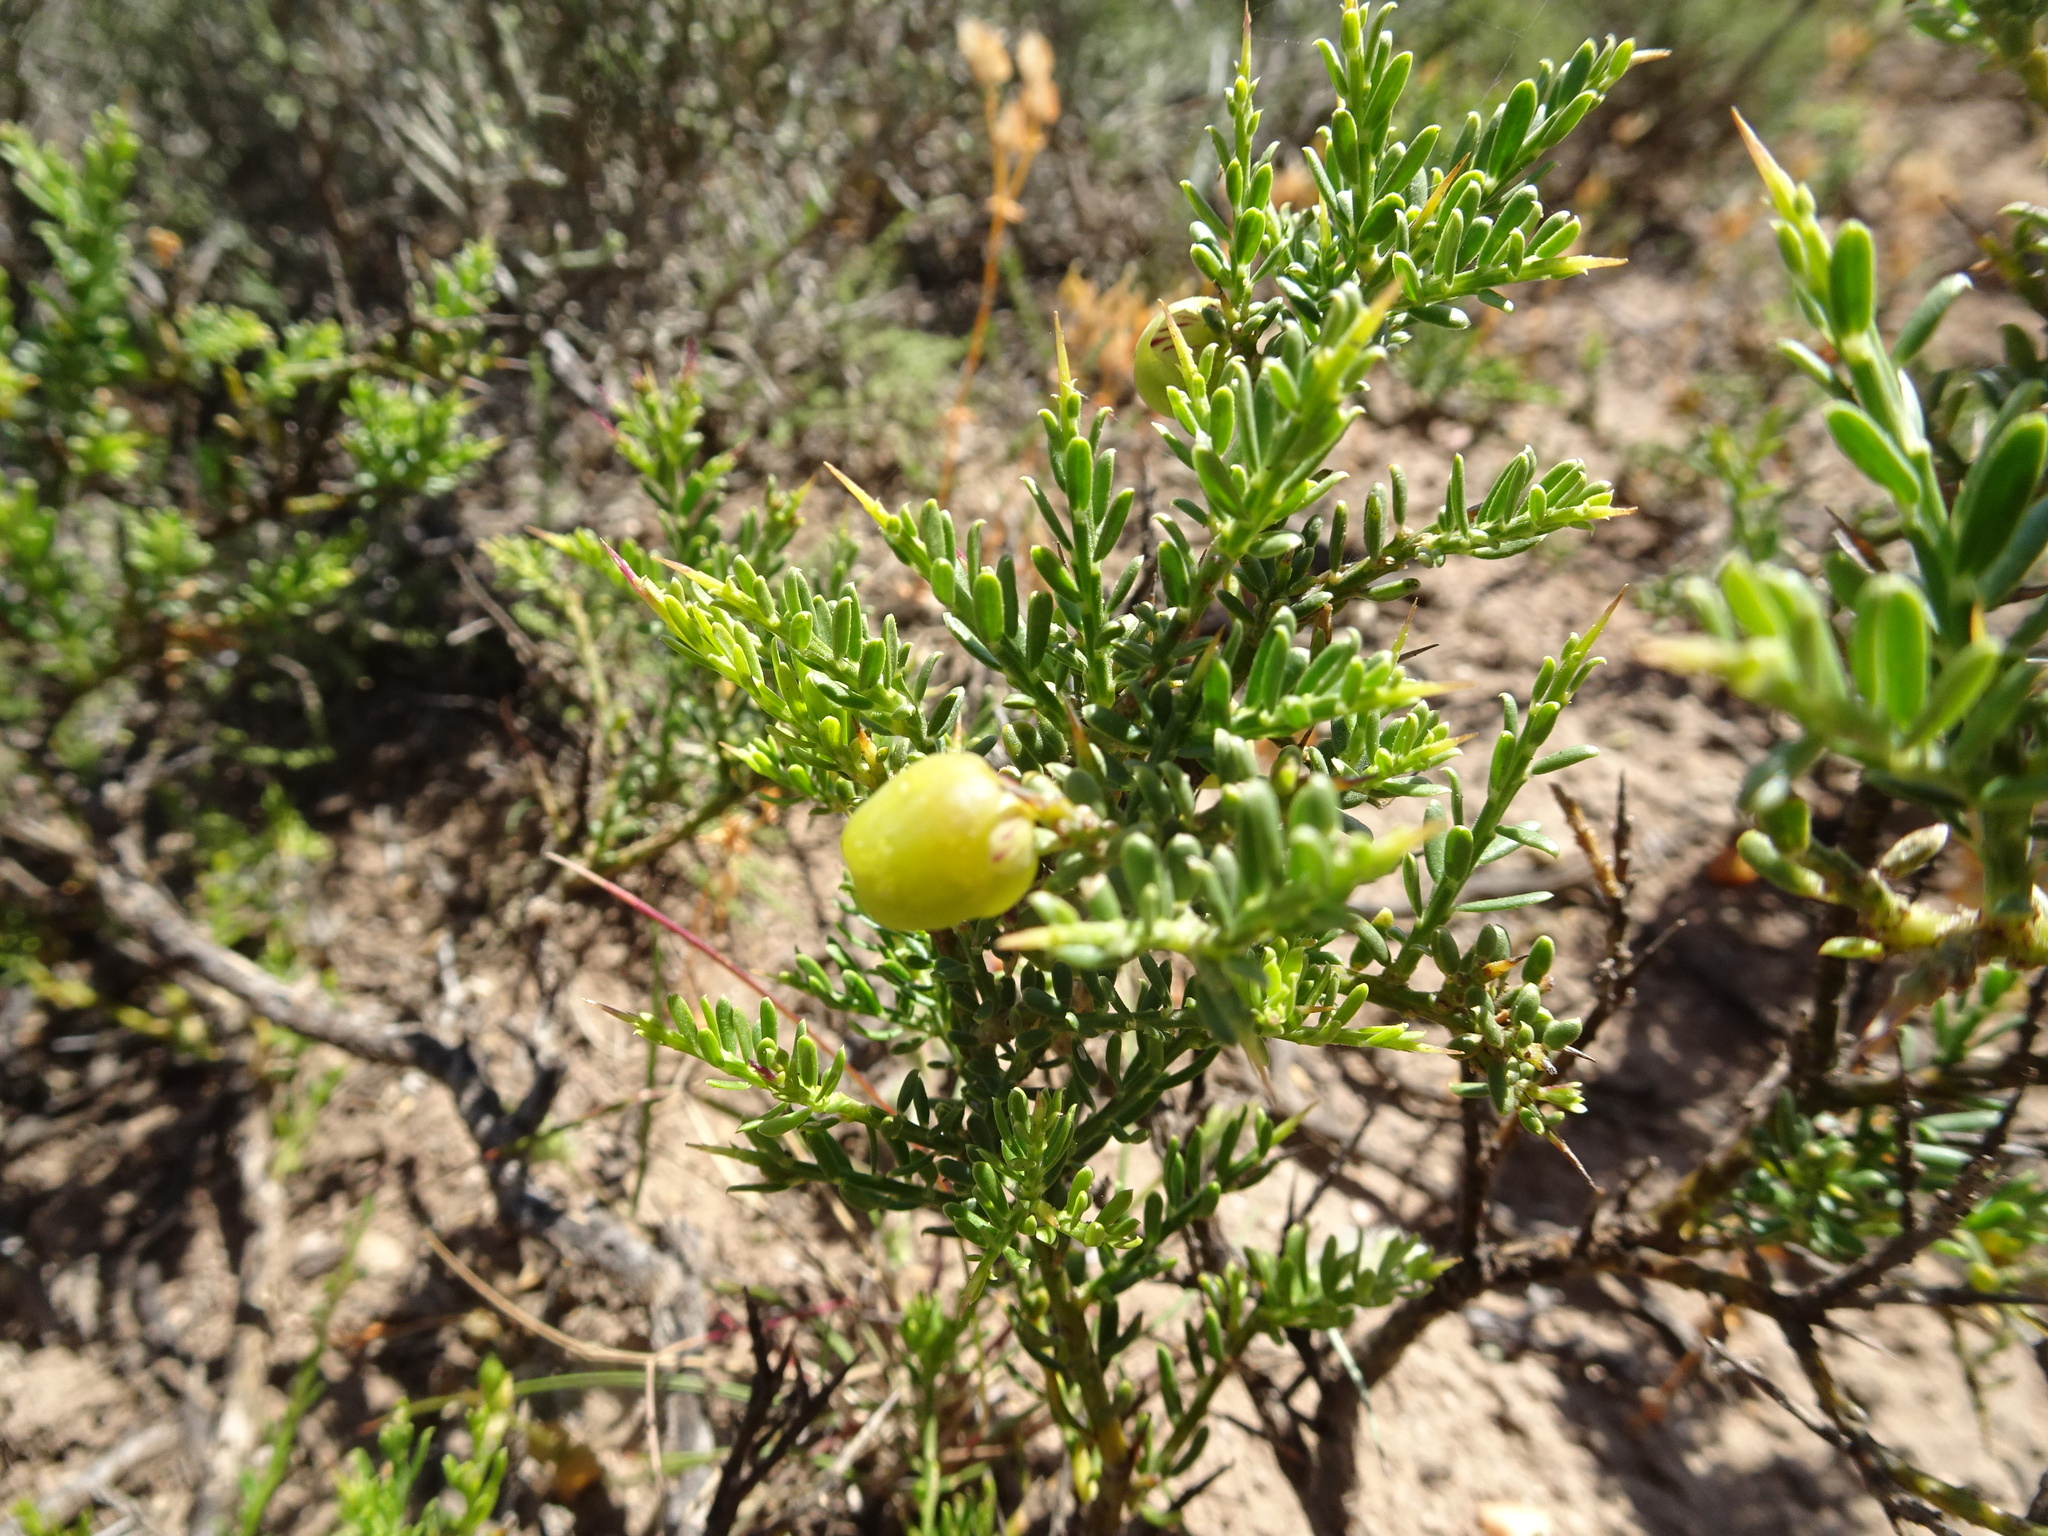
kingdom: Plantae
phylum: Tracheophyta
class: Magnoliopsida
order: Fabales
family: Polygalaceae
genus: Muraltia
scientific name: Muraltia spinosa
